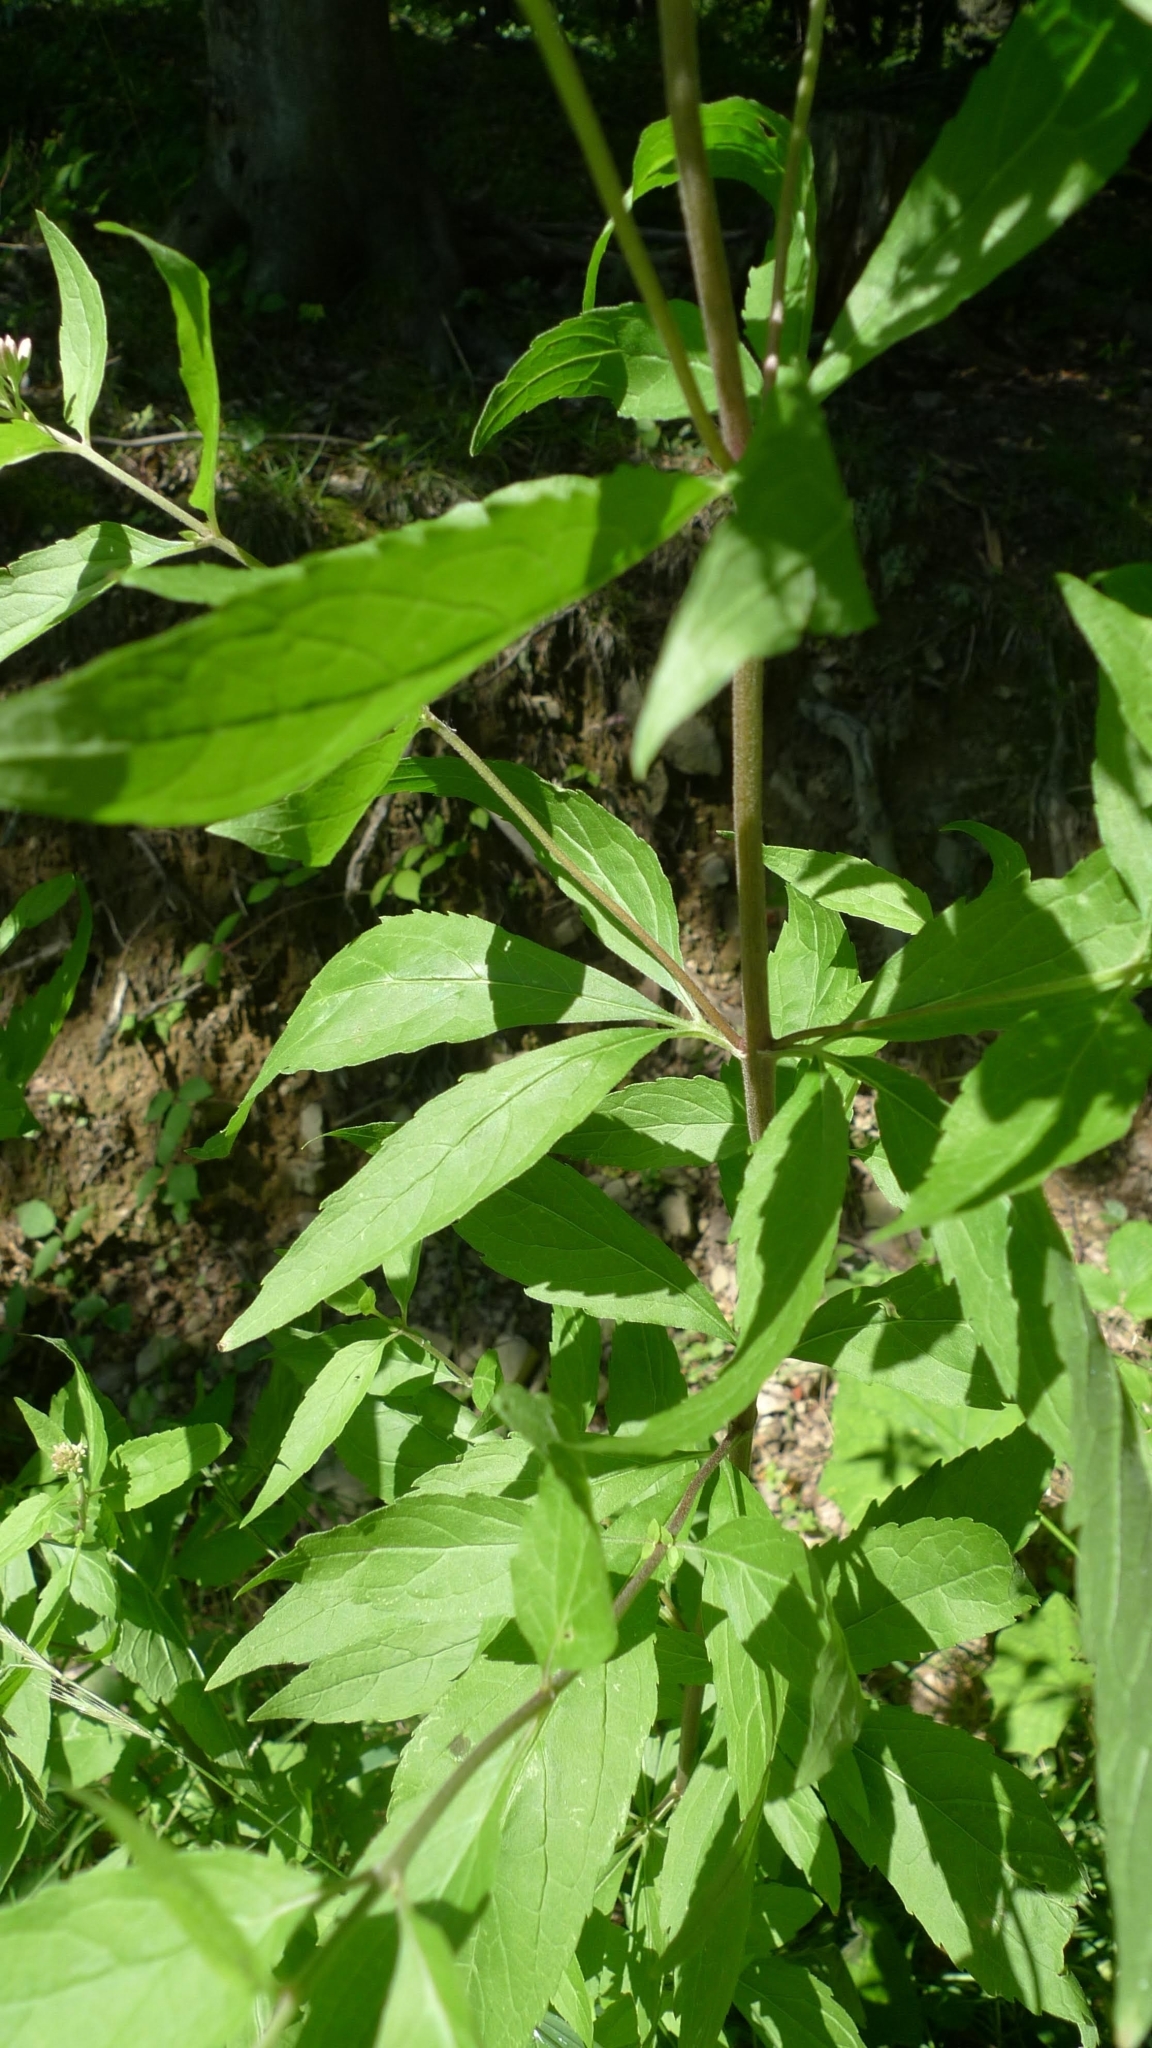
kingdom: Plantae
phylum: Tracheophyta
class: Magnoliopsida
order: Asterales
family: Asteraceae
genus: Eupatorium
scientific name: Eupatorium cannabinum
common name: Hemp-agrimony
